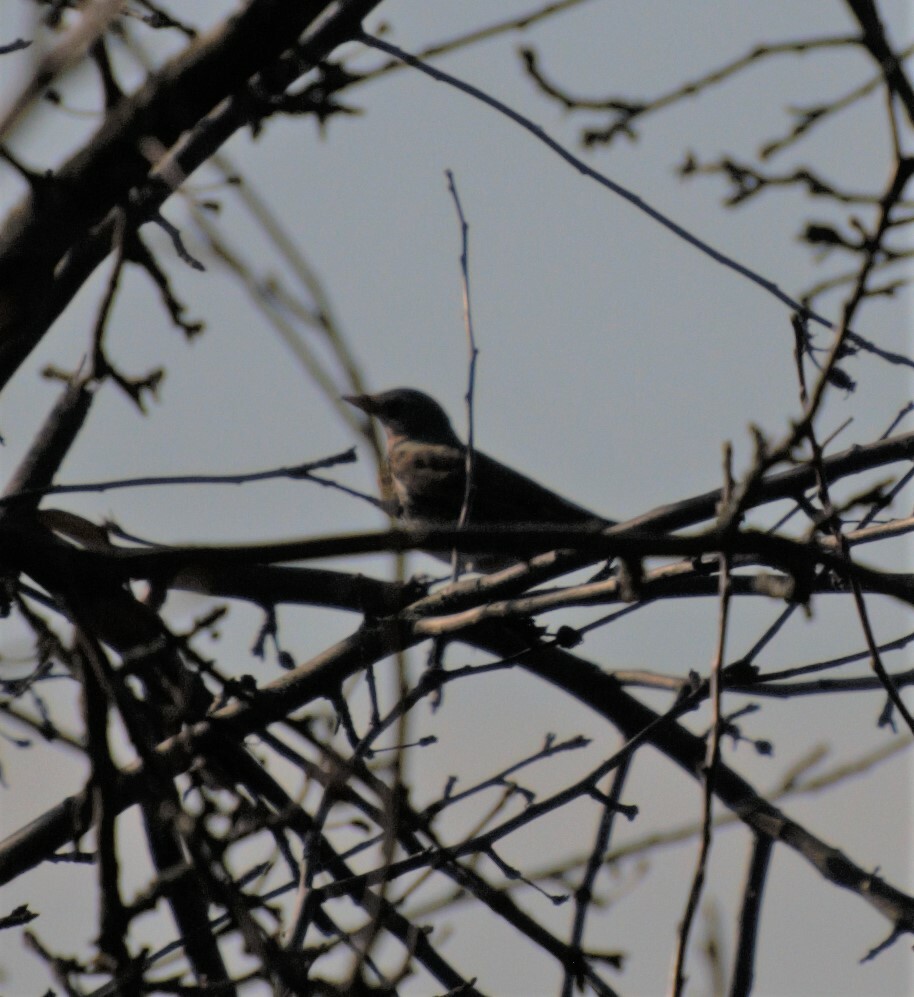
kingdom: Animalia
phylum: Chordata
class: Aves
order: Passeriformes
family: Turdidae
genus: Turdus
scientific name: Turdus pilaris
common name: Fieldfare
